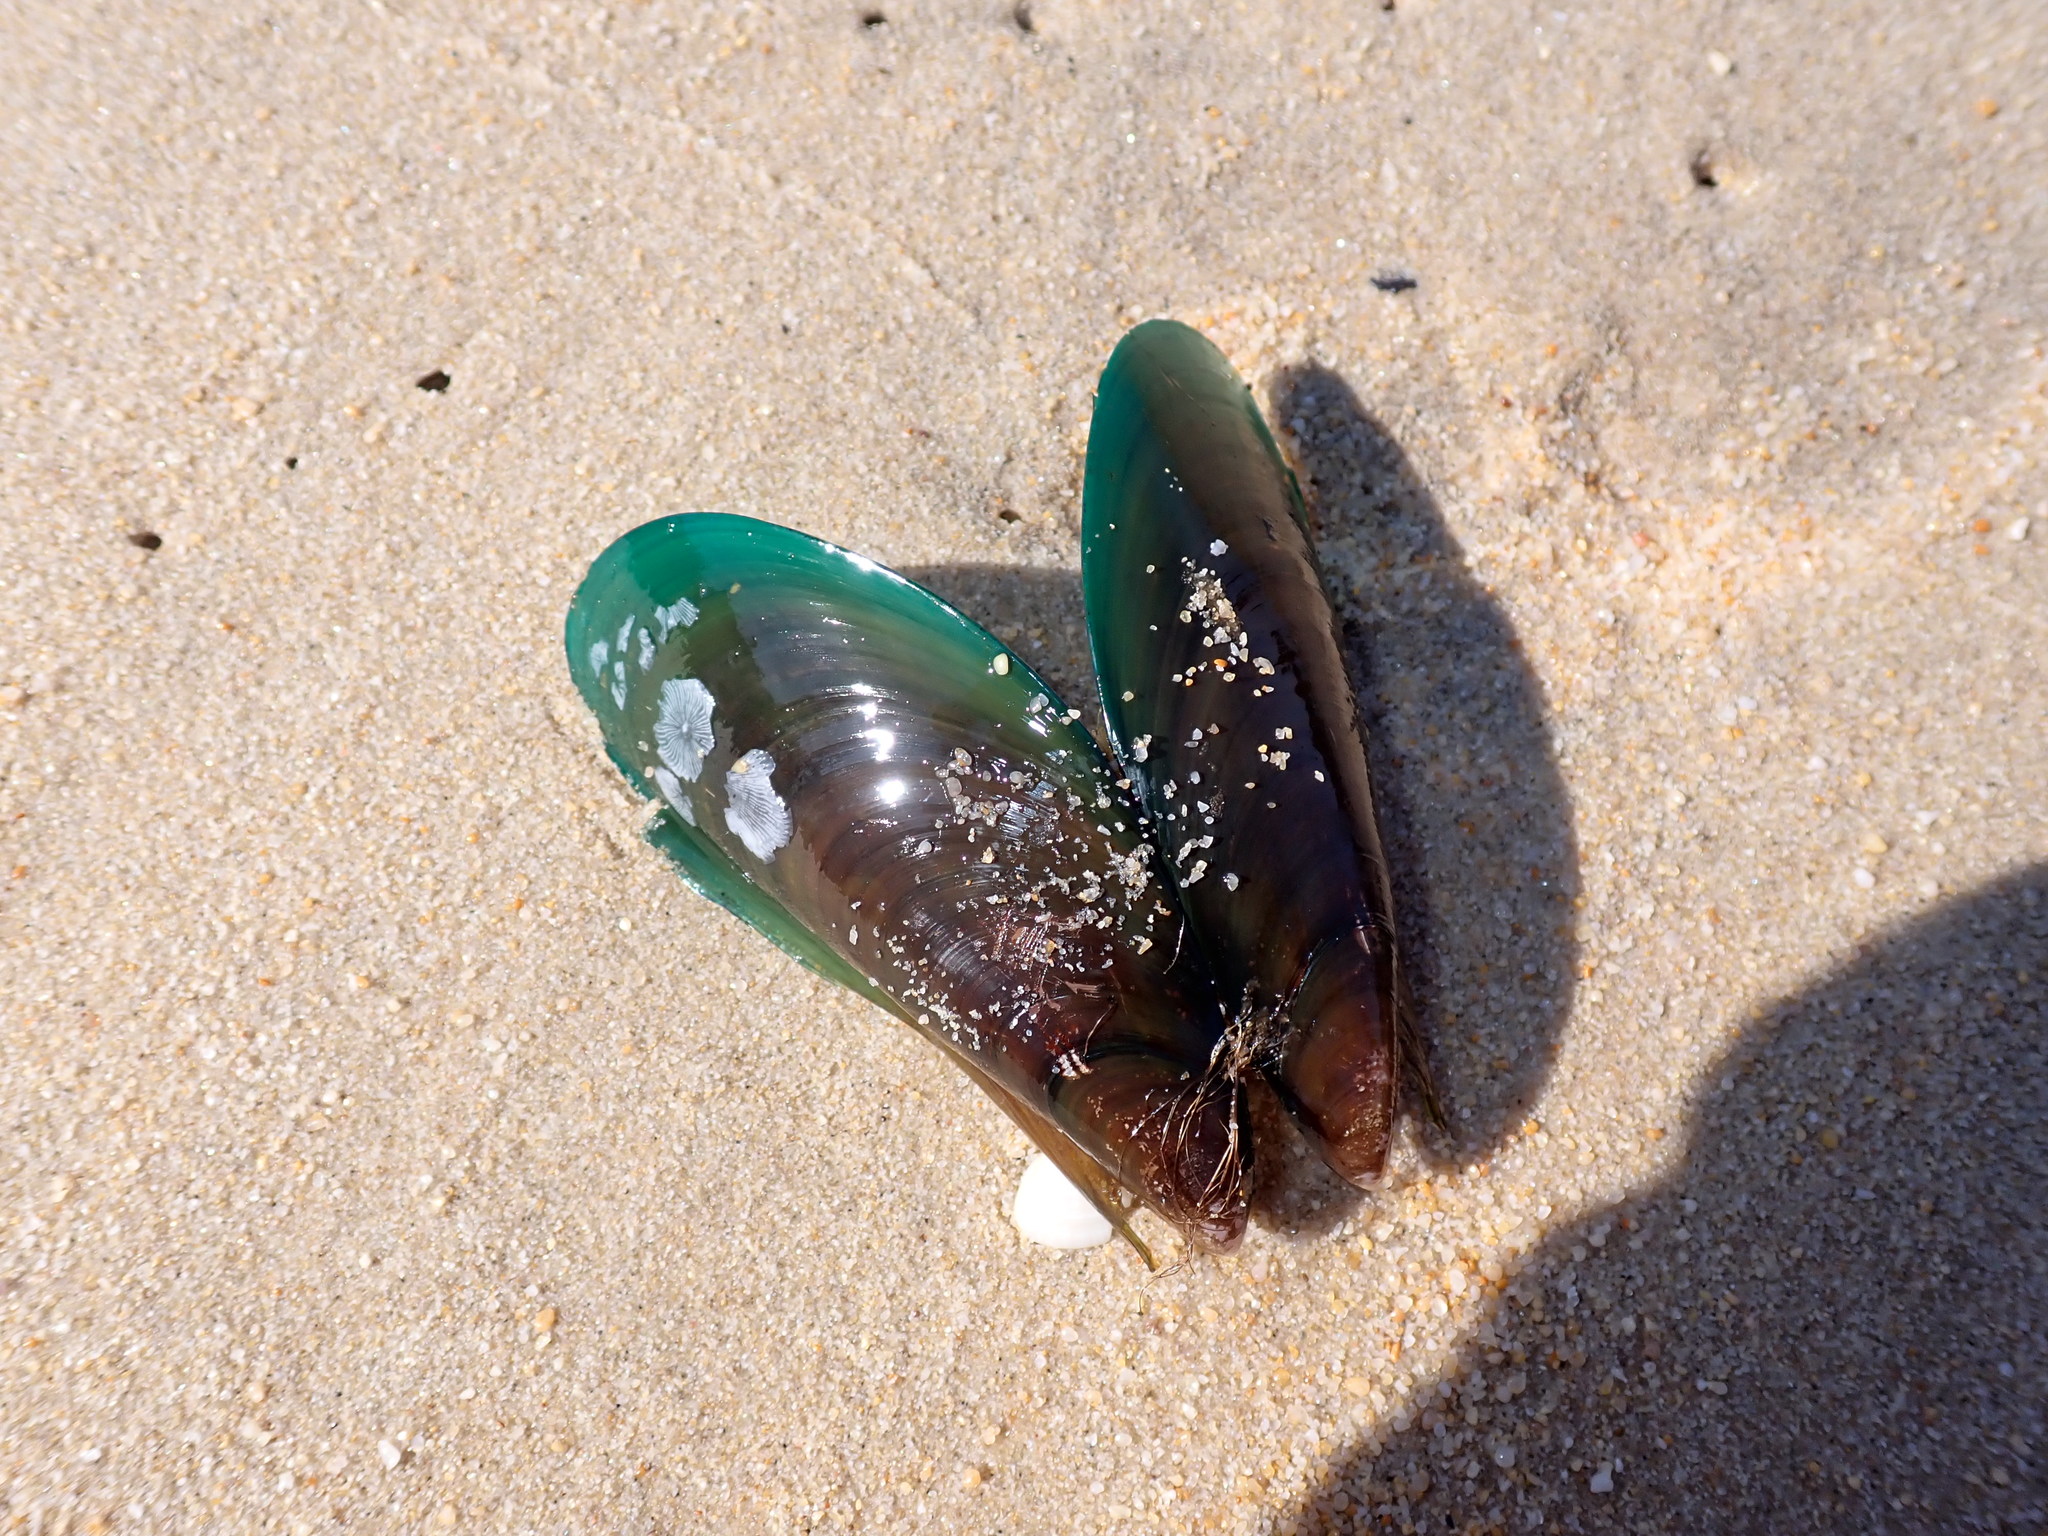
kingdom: Animalia
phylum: Mollusca
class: Bivalvia
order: Mytilida
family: Mytilidae
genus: Perna
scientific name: Perna viridis
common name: Green mussel
